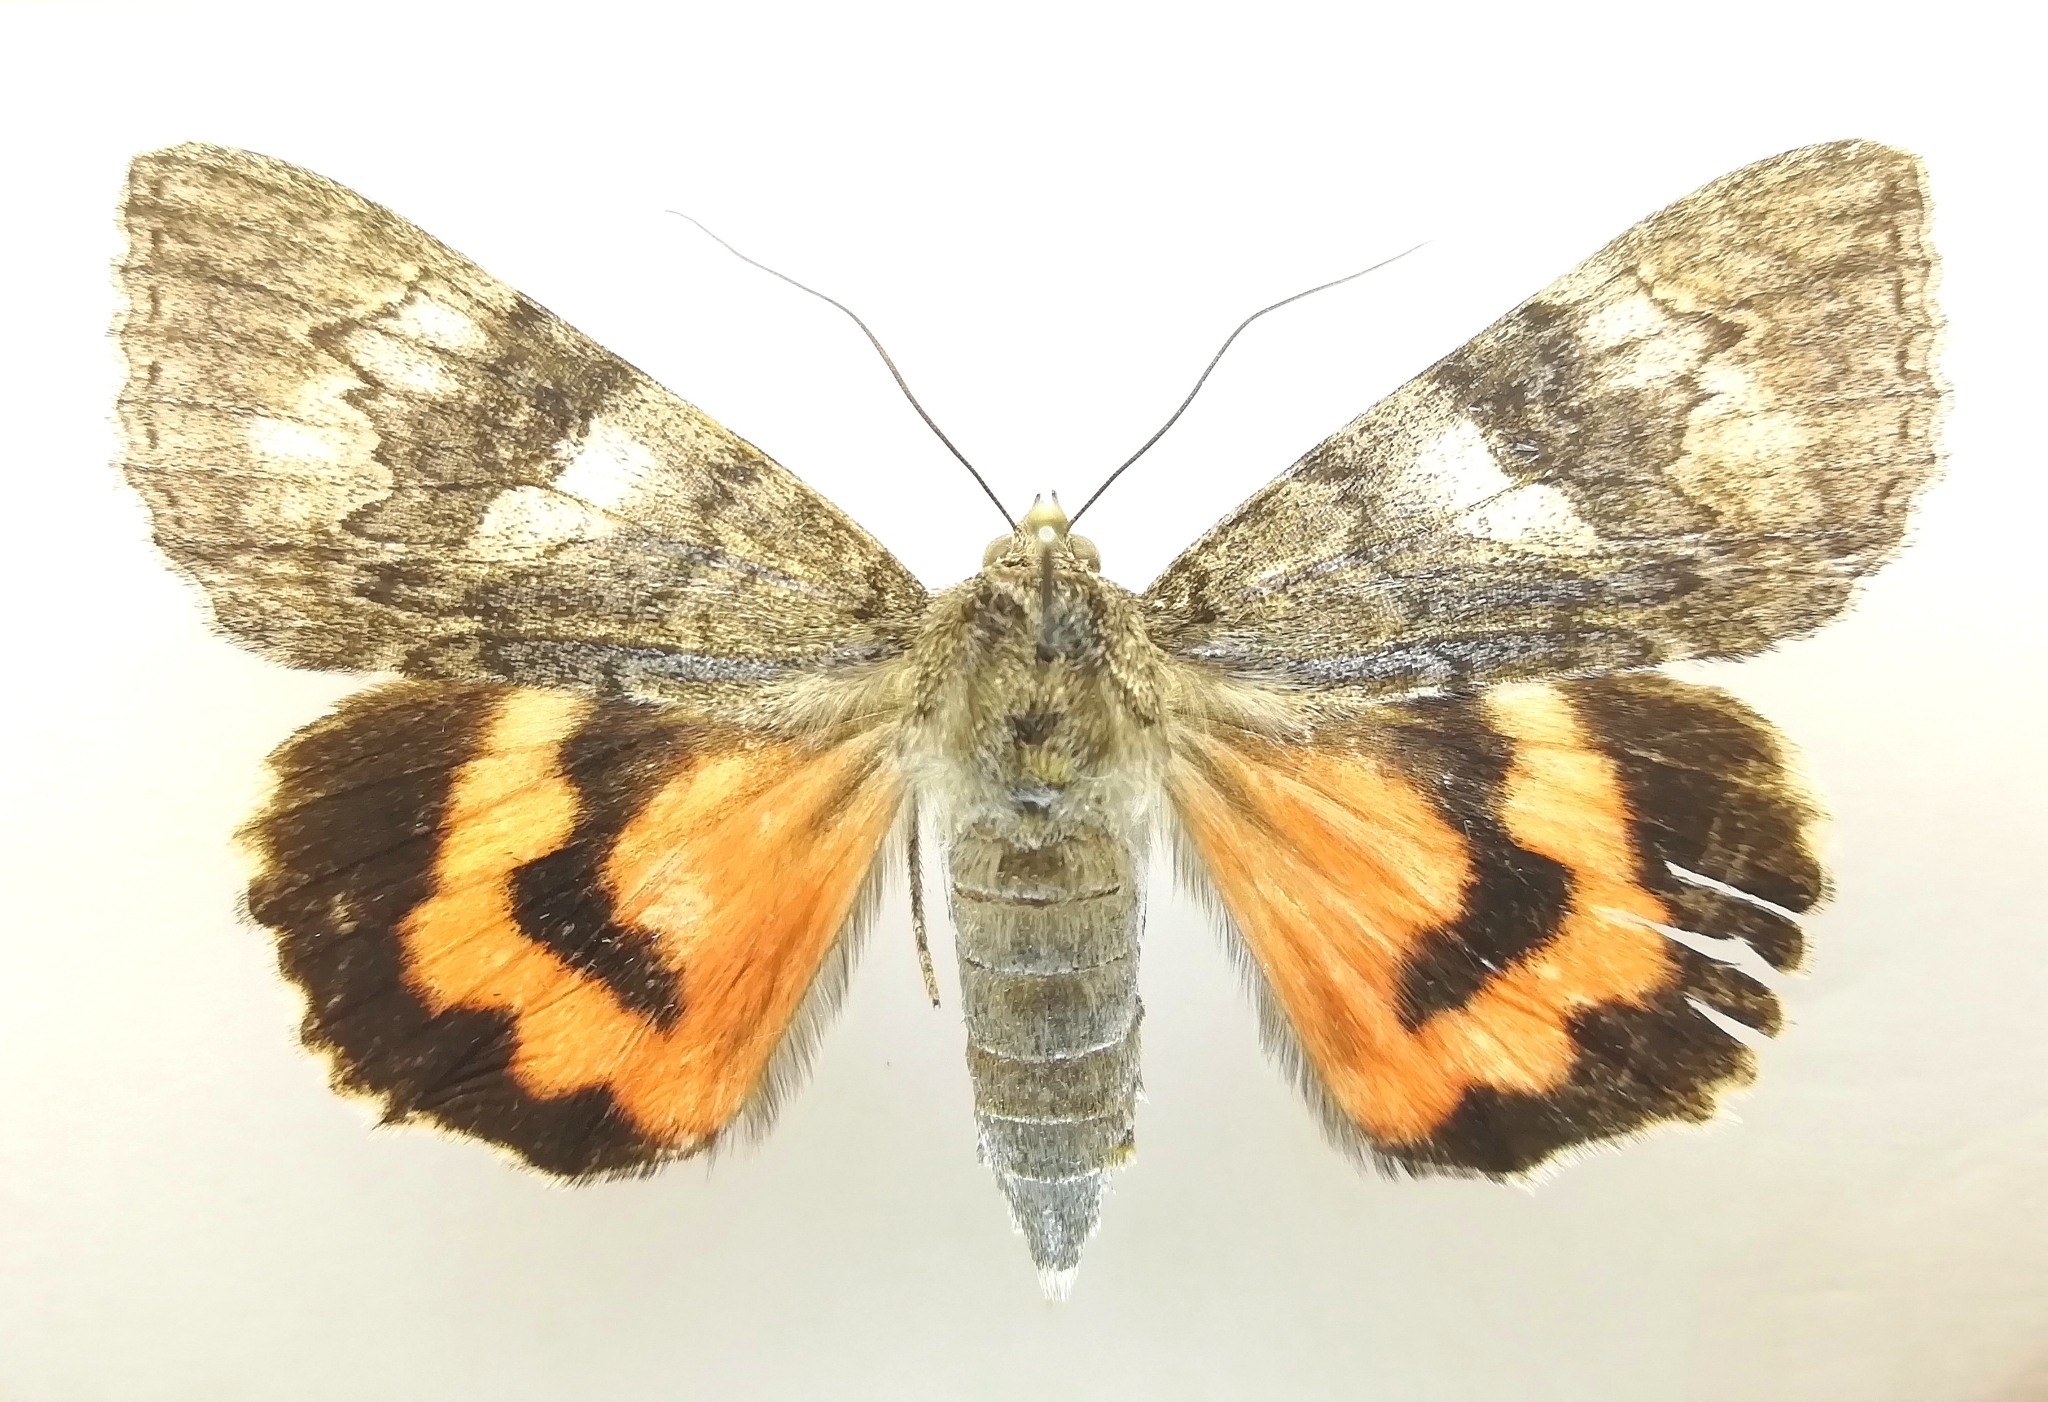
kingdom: Animalia
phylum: Arthropoda
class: Insecta
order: Lepidoptera
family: Erebidae
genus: Catocala
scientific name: Catocala nupta
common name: Red underwing
